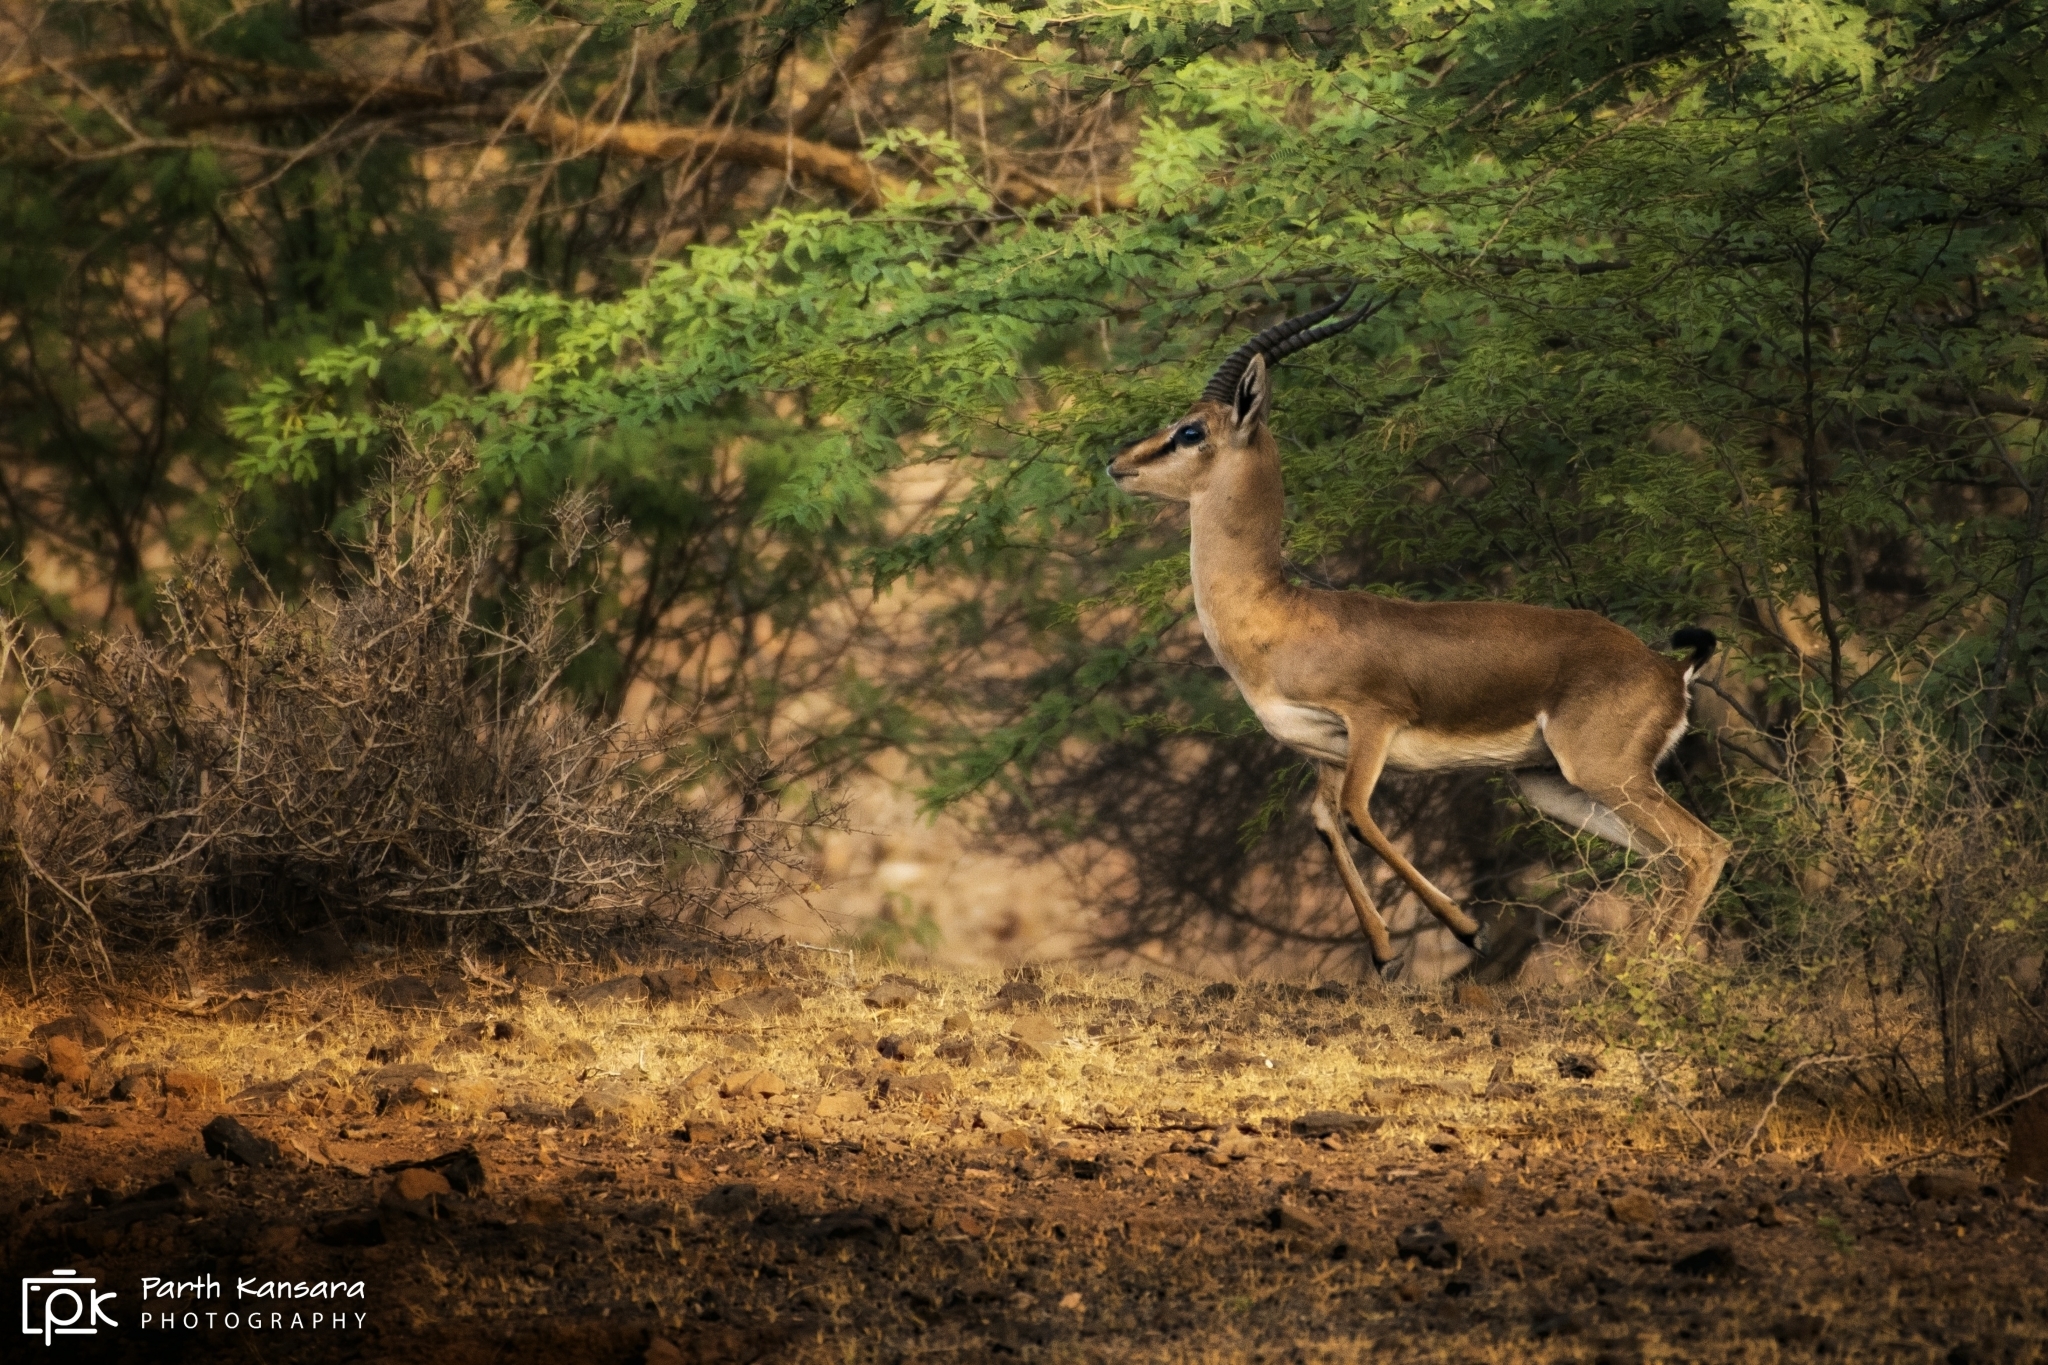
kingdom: Animalia
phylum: Chordata
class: Mammalia
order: Artiodactyla
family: Bovidae
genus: Gazella
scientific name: Gazella bennettii
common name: Indian gazelle
